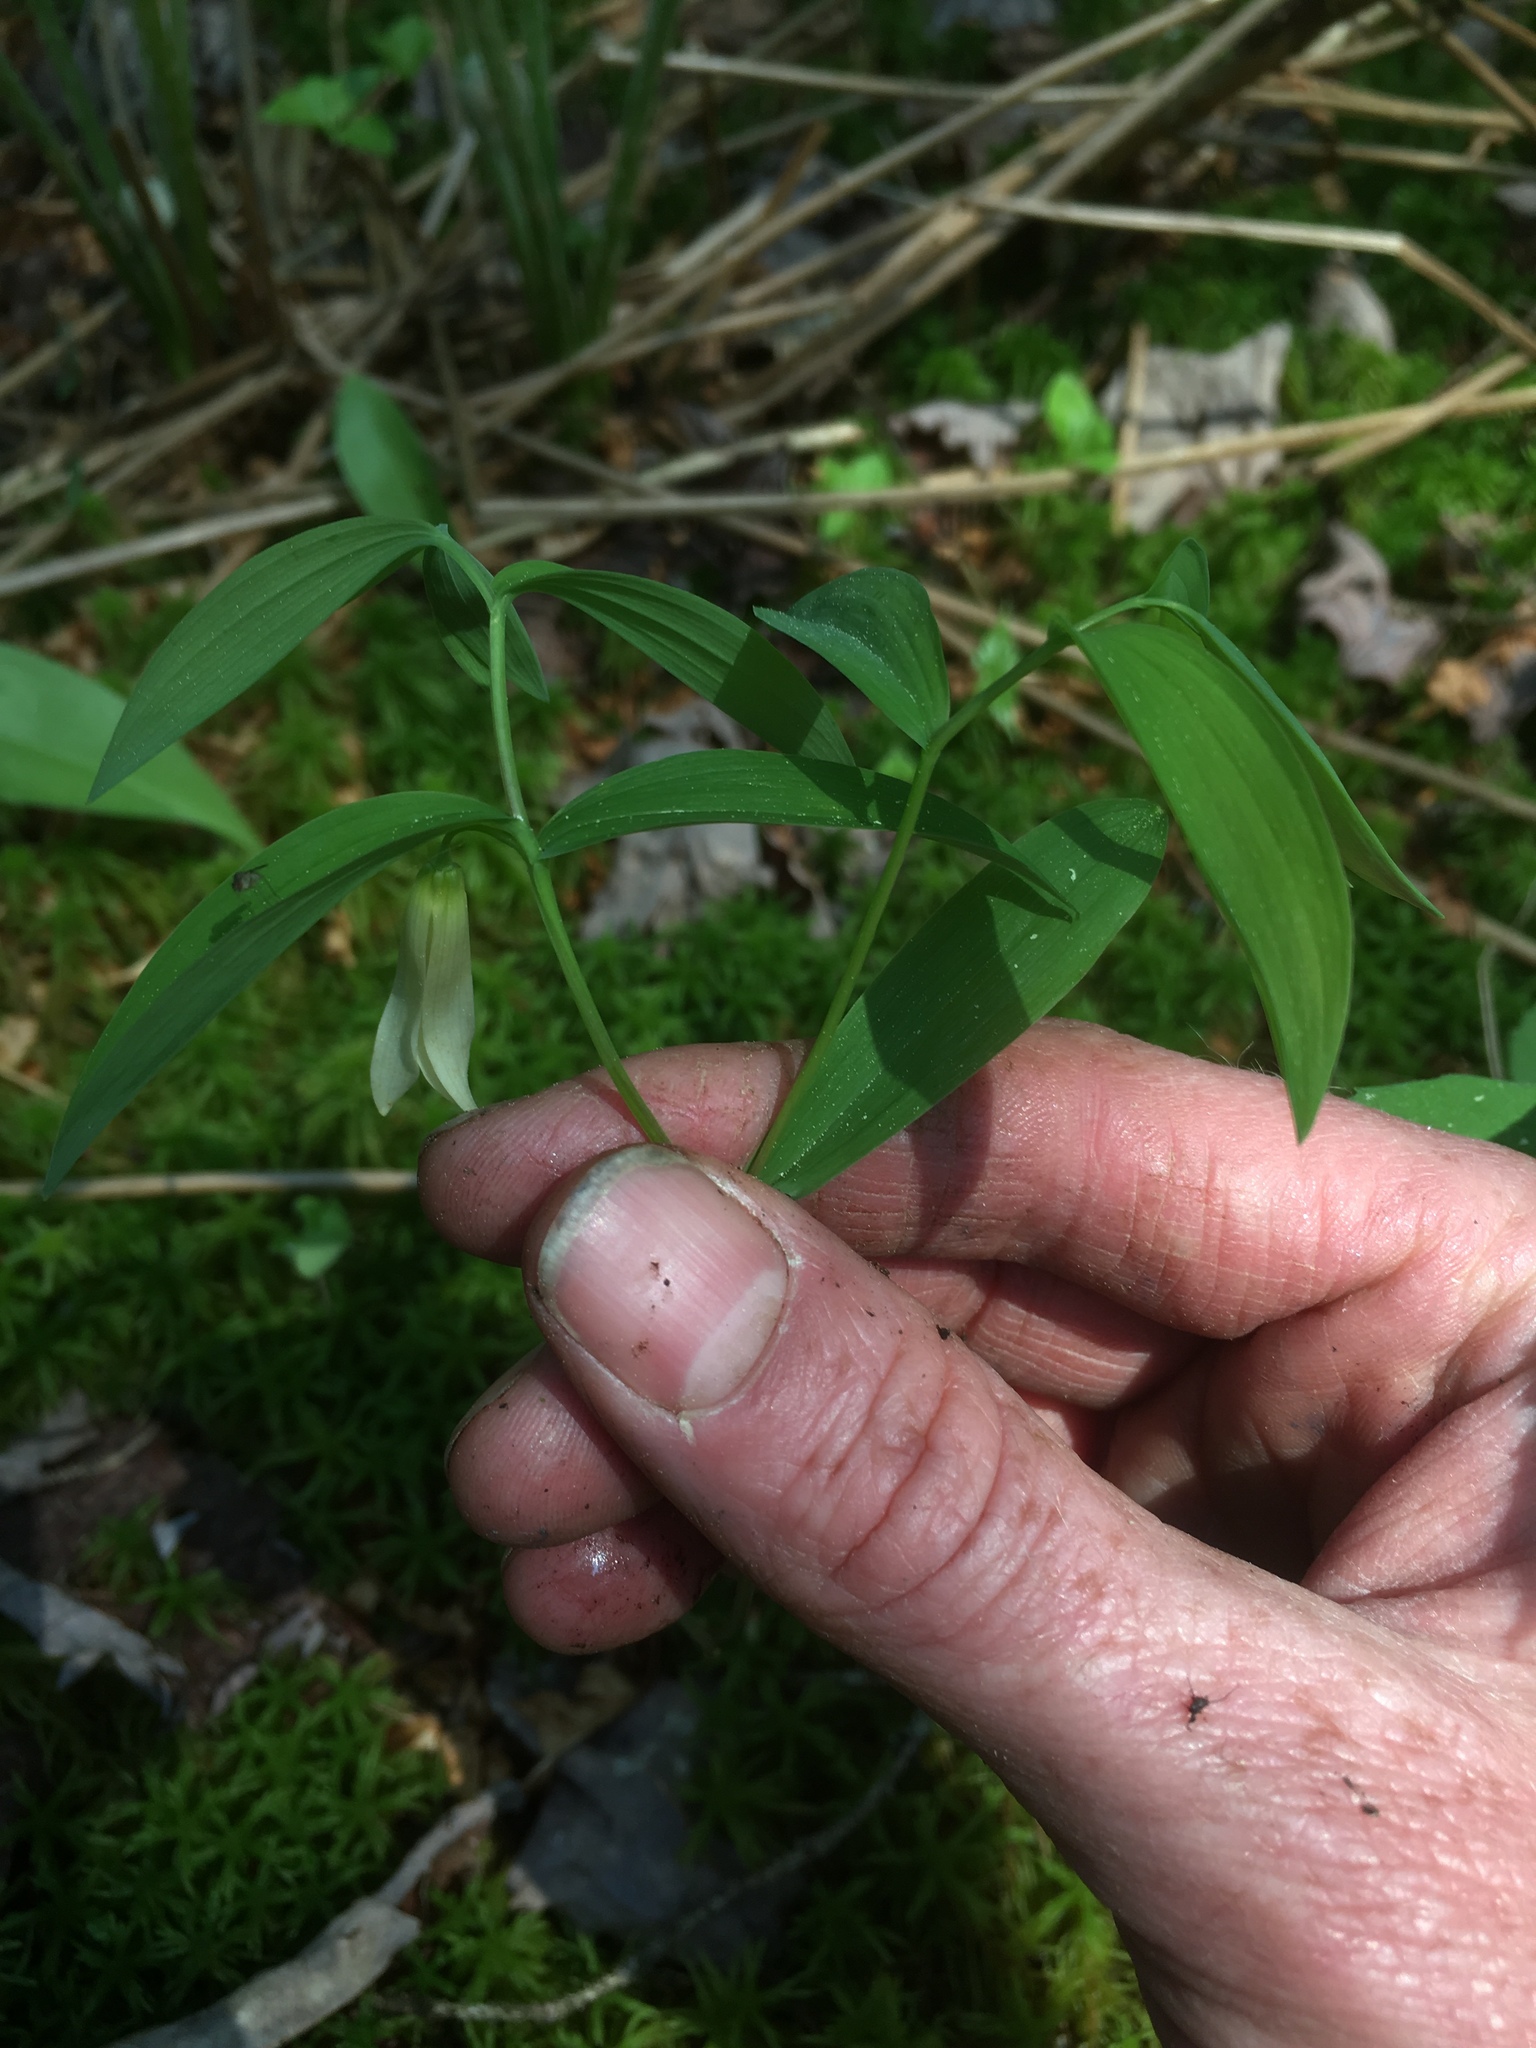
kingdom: Plantae
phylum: Tracheophyta
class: Liliopsida
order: Liliales
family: Colchicaceae
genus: Uvularia
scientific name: Uvularia sessilifolia
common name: Straw-lily
